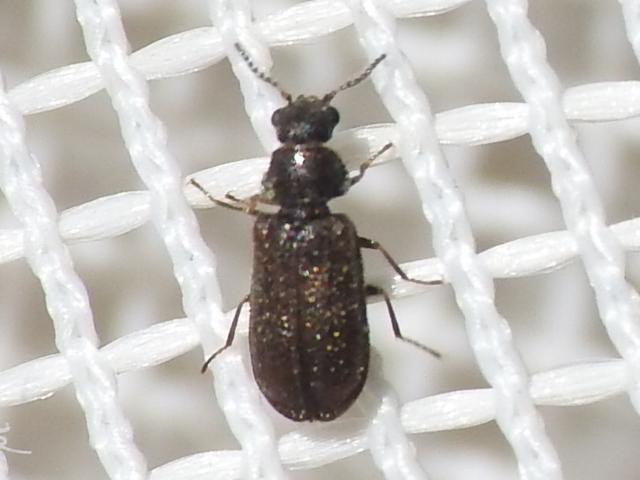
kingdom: Animalia
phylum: Arthropoda
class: Insecta
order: Coleoptera
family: Melyridae
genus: Melyrodes
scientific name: Melyrodes
